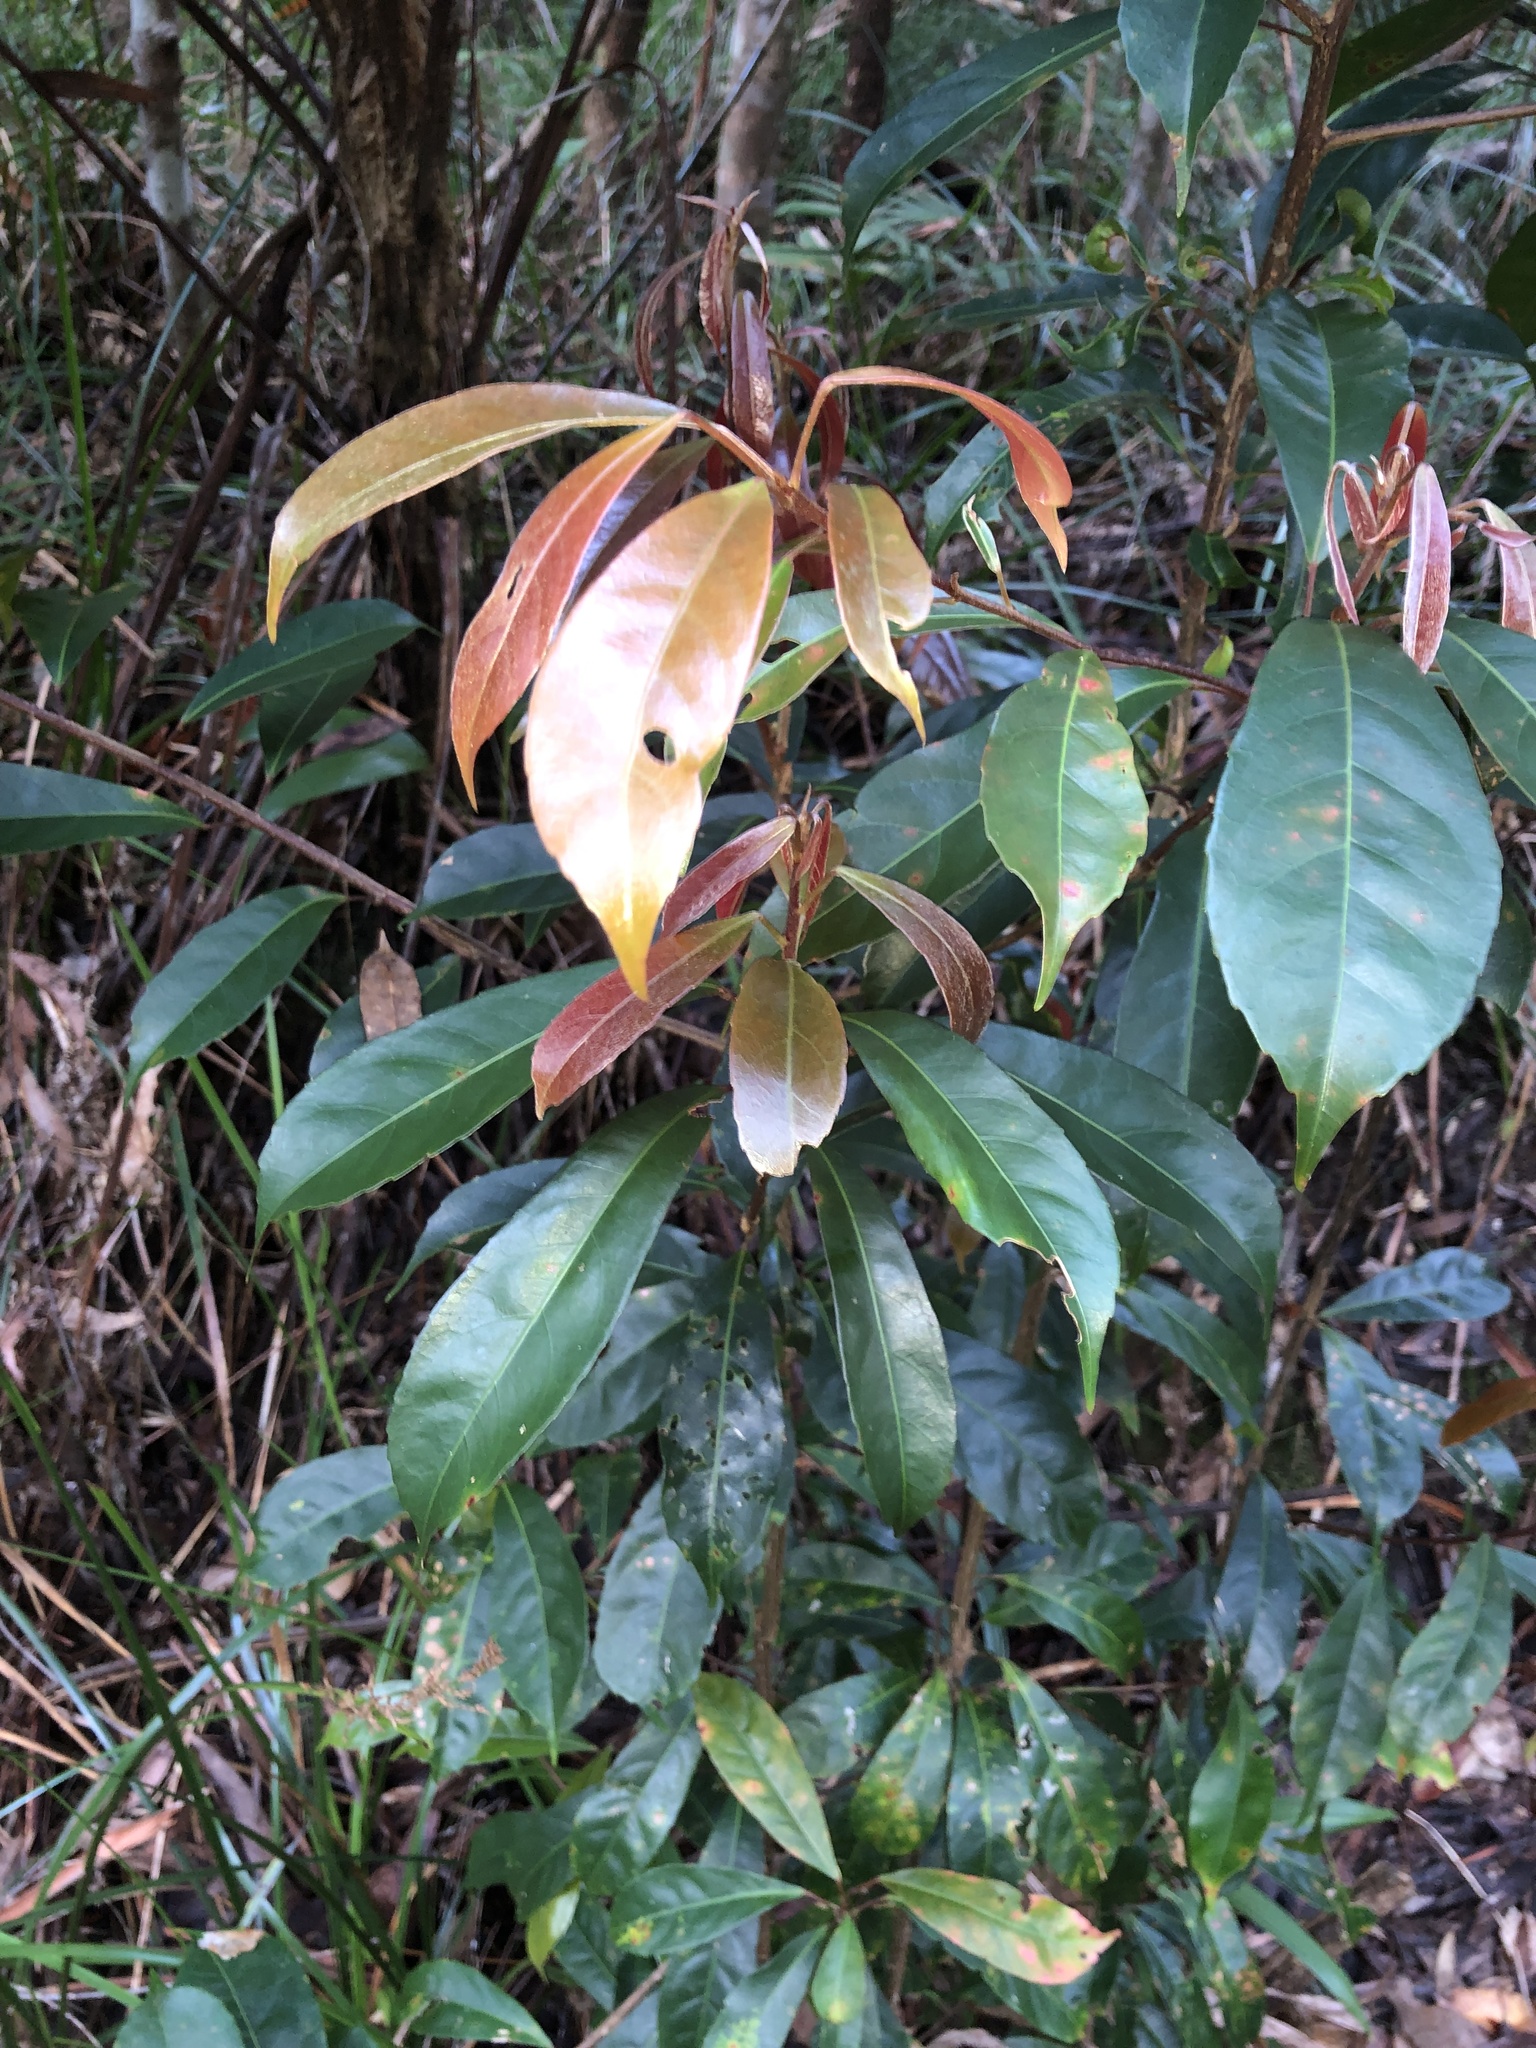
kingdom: Plantae
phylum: Tracheophyta
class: Magnoliopsida
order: Oxalidales
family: Elaeocarpaceae
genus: Elaeocarpus
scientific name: Elaeocarpus eumundi
